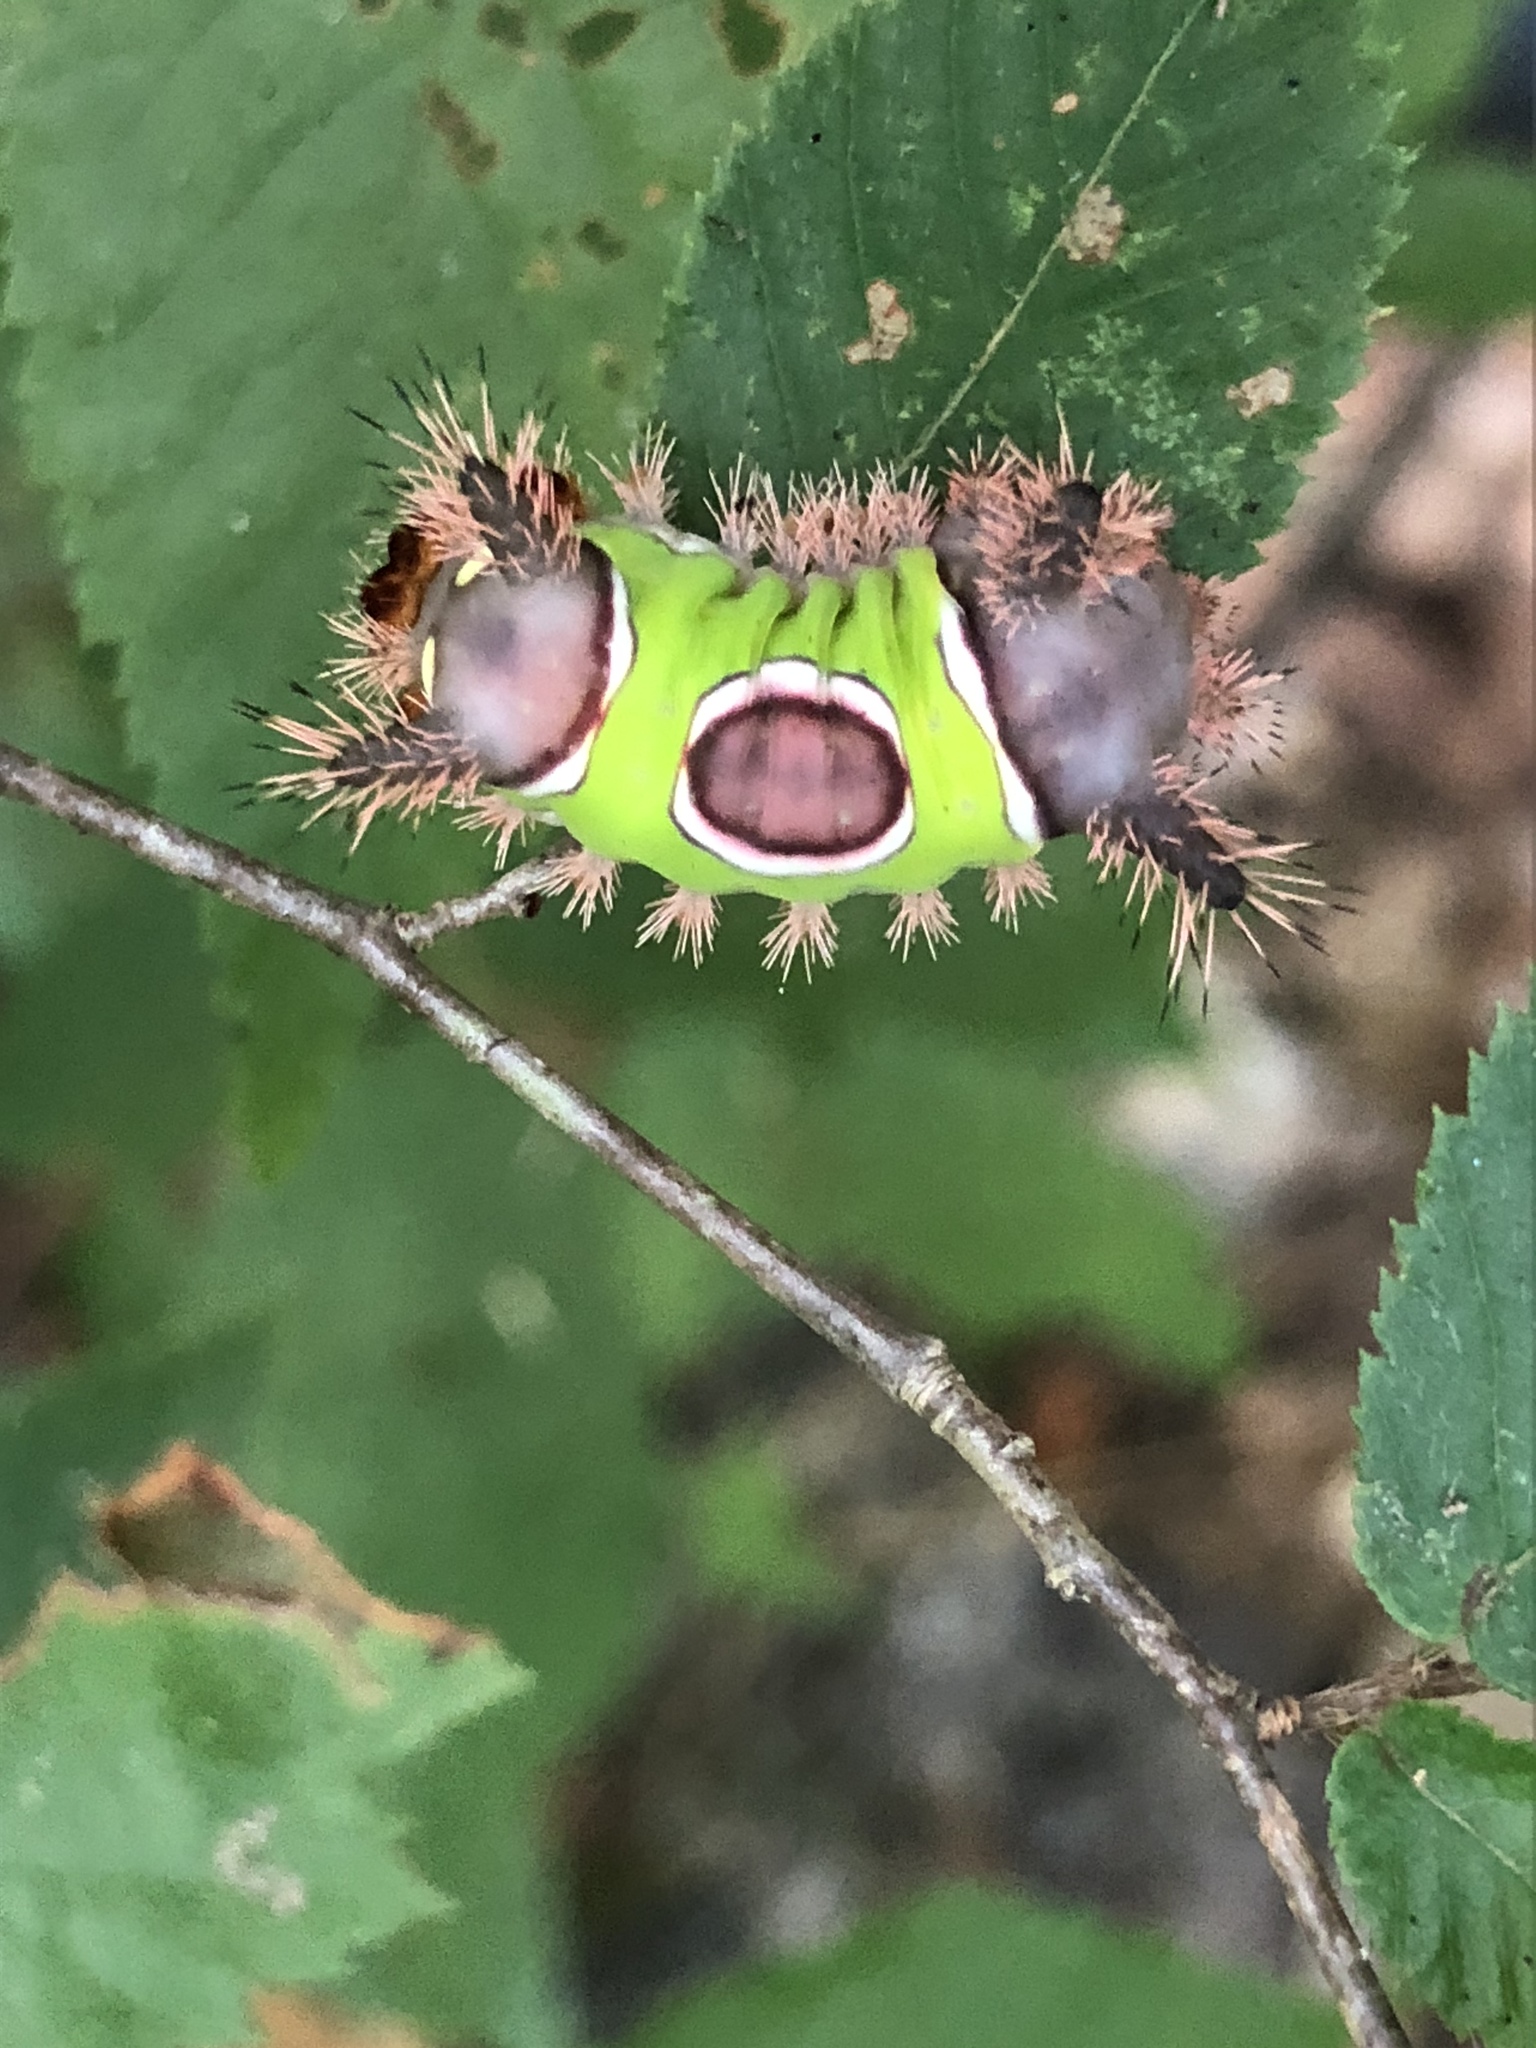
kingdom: Animalia
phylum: Arthropoda
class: Insecta
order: Lepidoptera
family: Limacodidae
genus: Acharia
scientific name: Acharia stimulea
